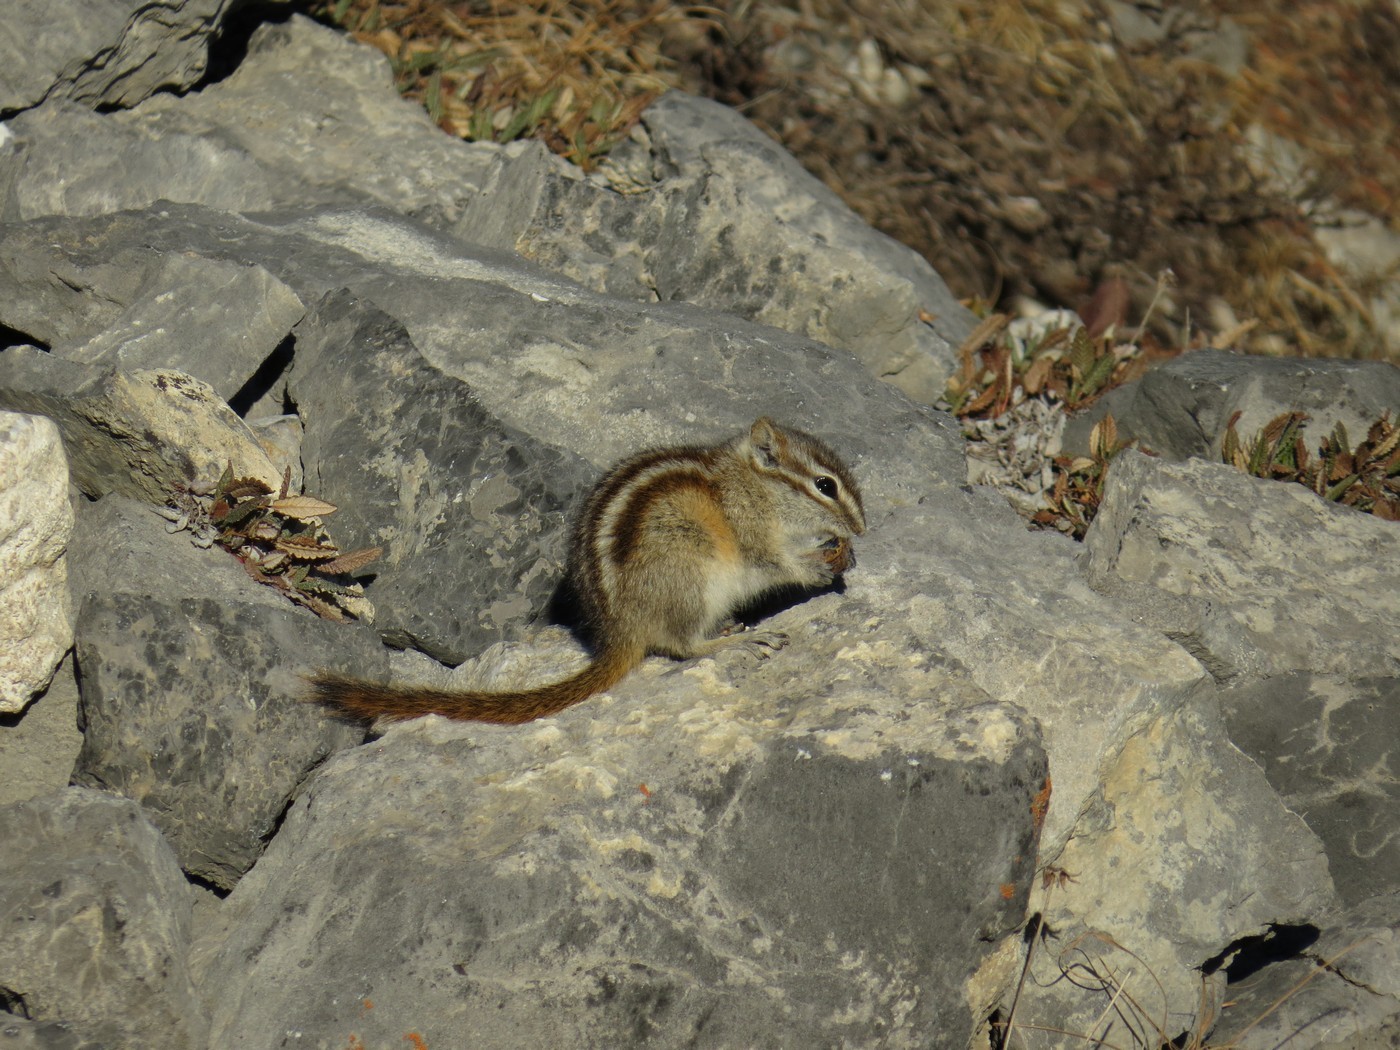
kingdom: Animalia
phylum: Chordata
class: Mammalia
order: Rodentia
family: Sciuridae
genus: Tamias
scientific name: Tamias minimus
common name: Least chipmunk
